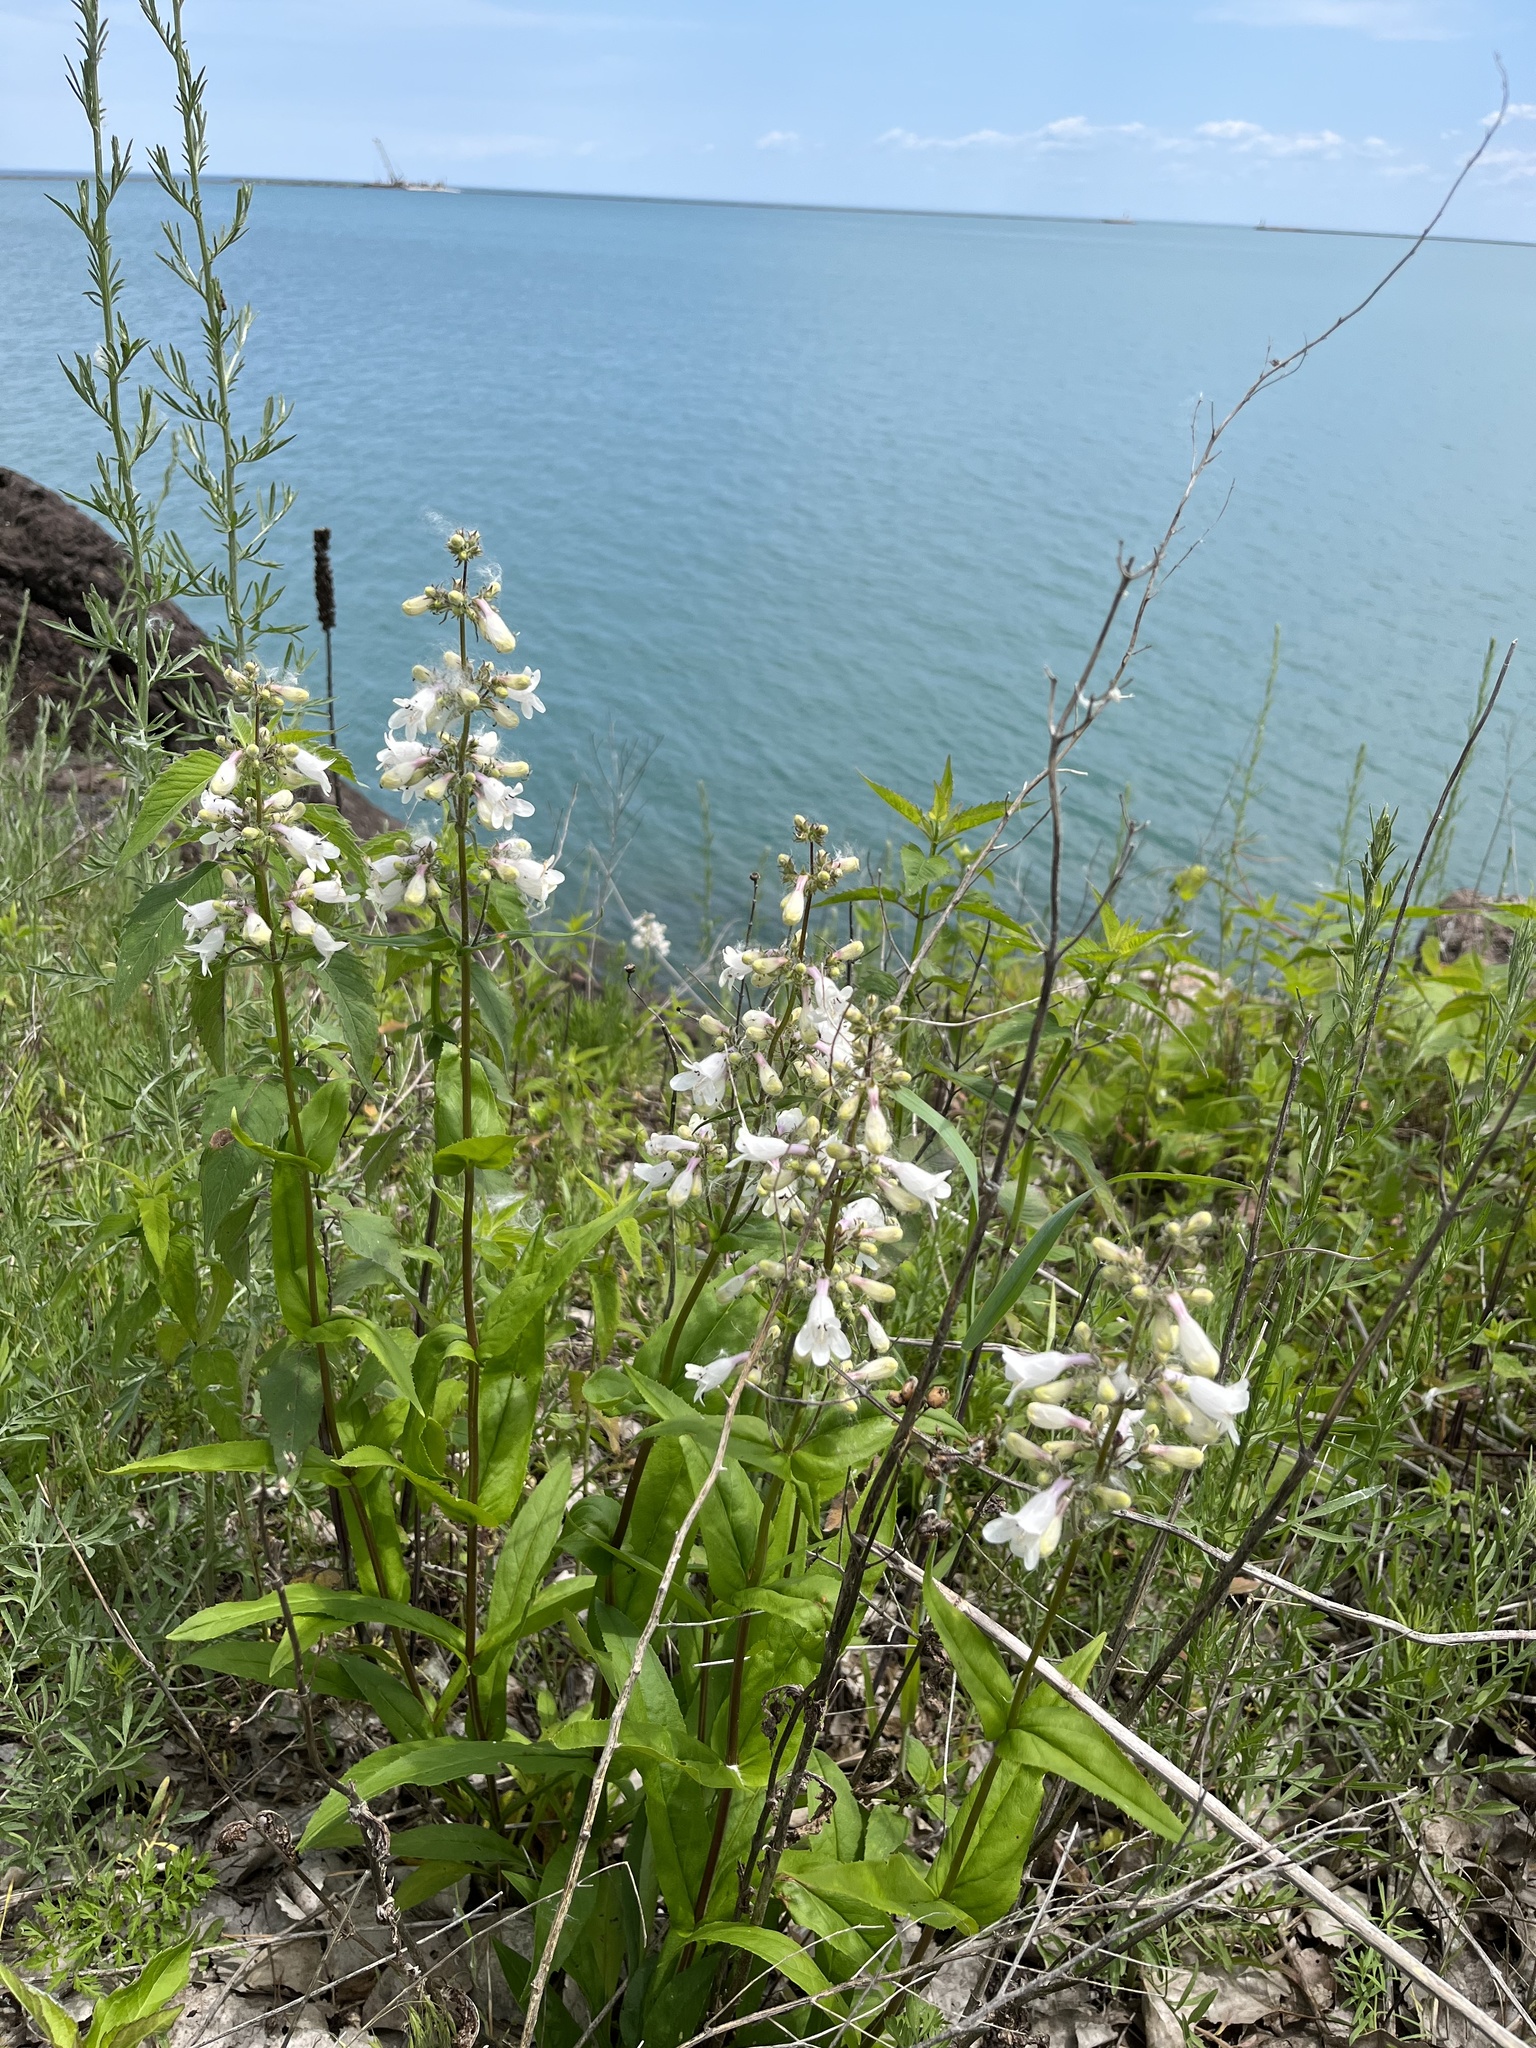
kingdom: Plantae
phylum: Tracheophyta
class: Magnoliopsida
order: Lamiales
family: Plantaginaceae
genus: Penstemon
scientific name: Penstemon digitalis
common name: Foxglove beardtongue
